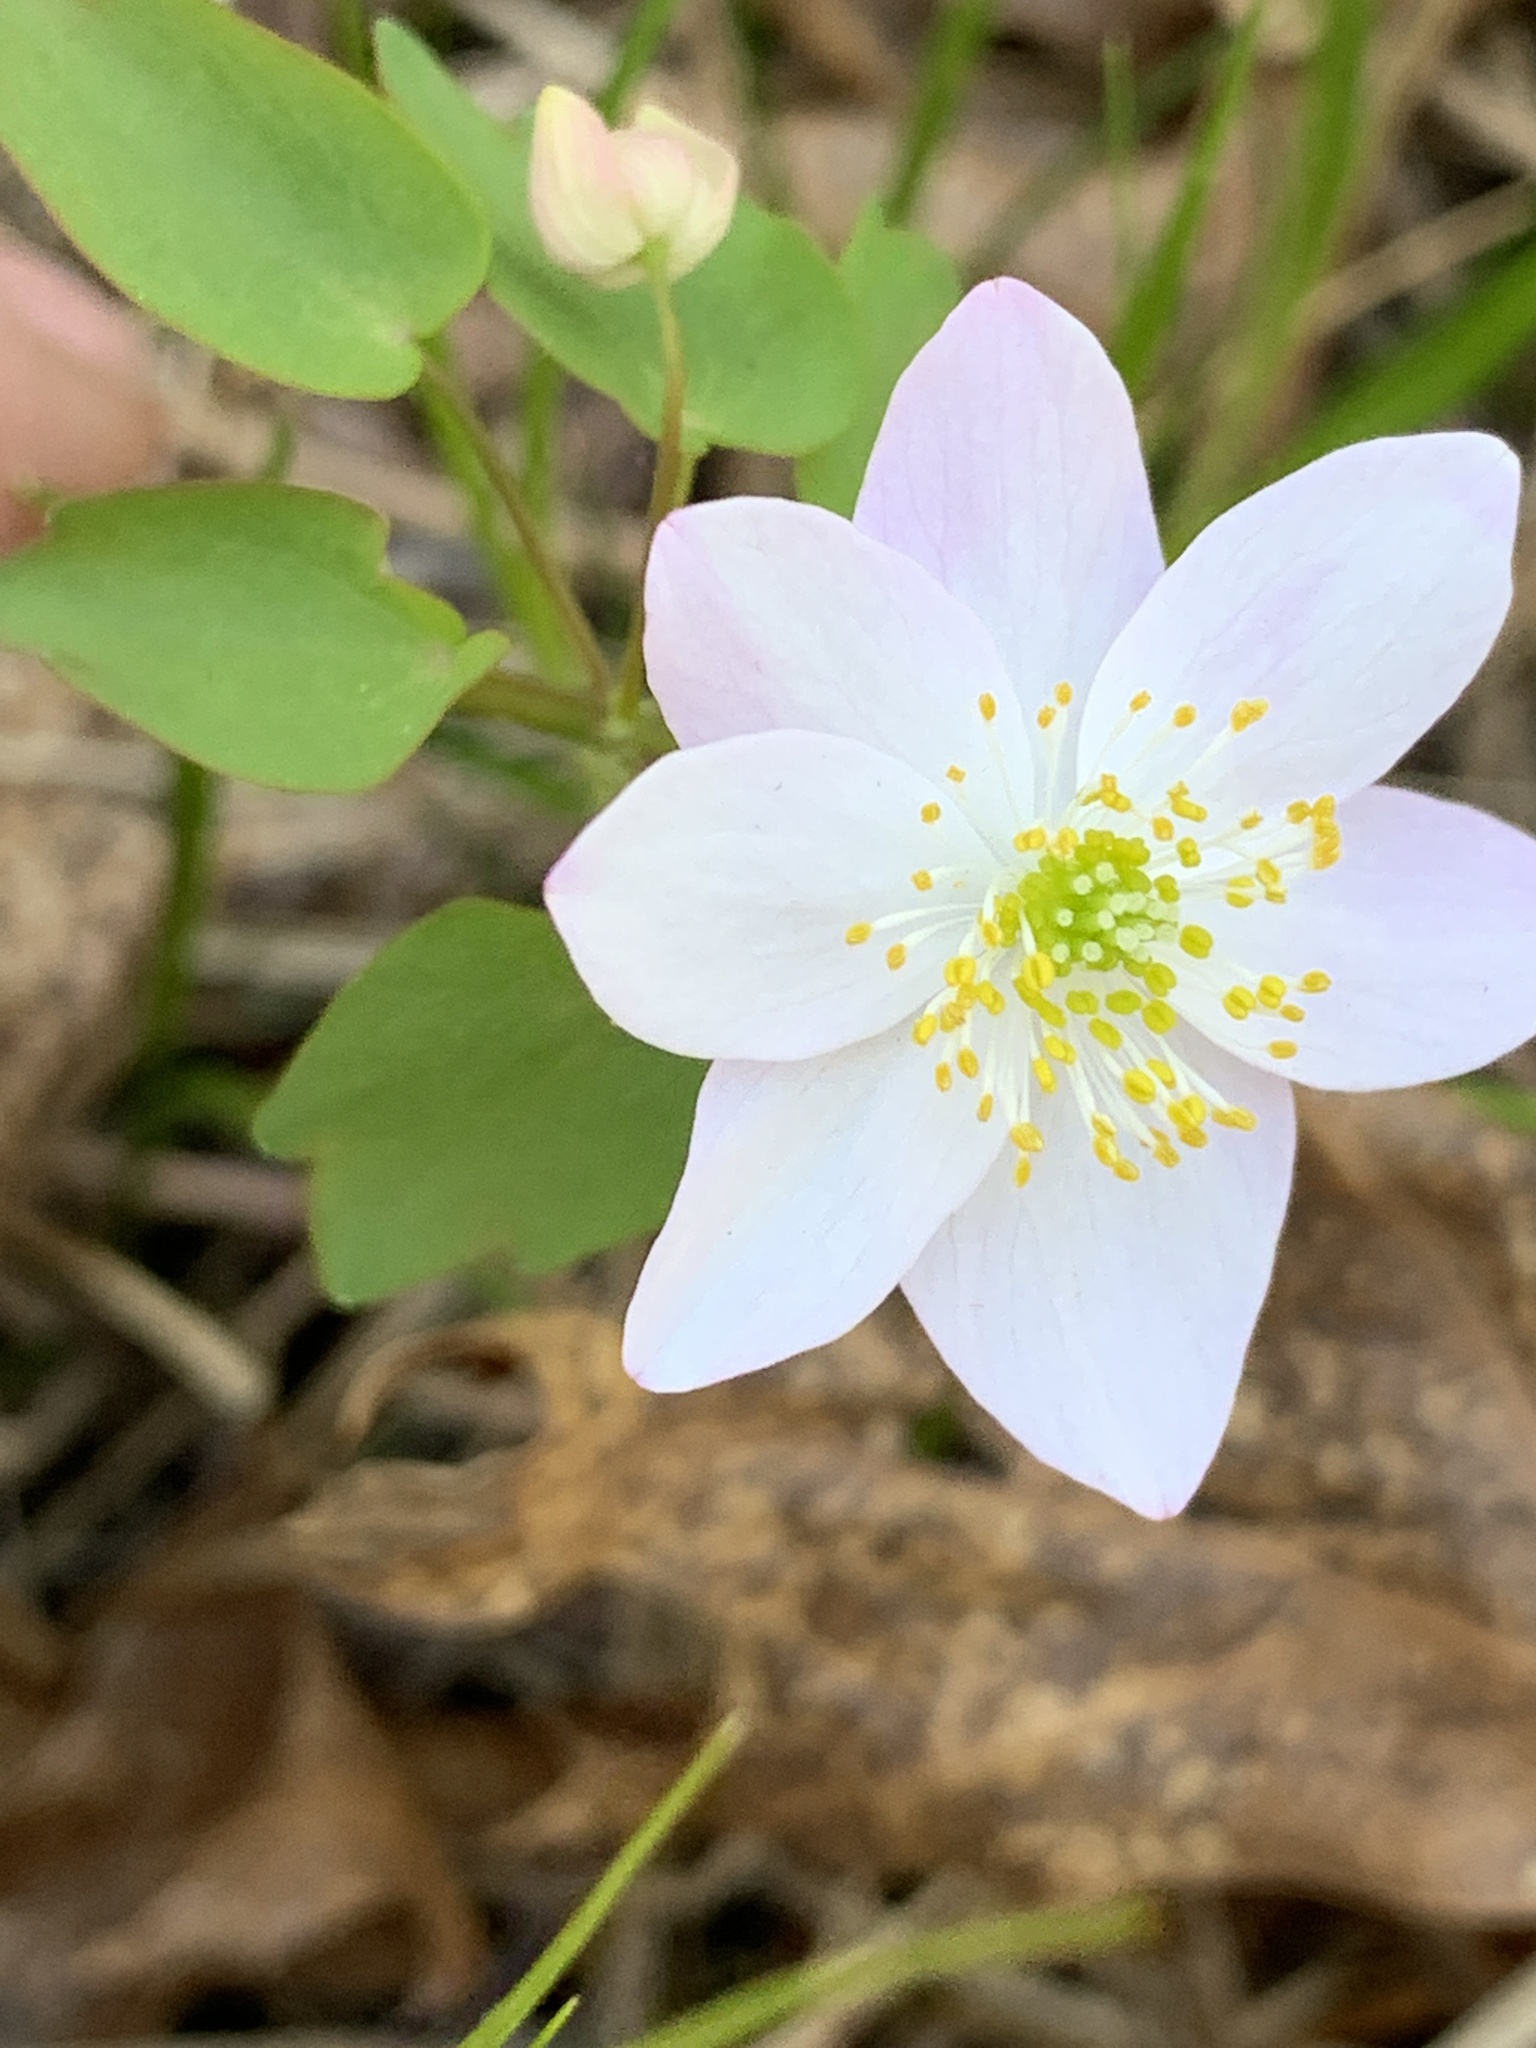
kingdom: Plantae
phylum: Tracheophyta
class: Magnoliopsida
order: Ranunculales
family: Ranunculaceae
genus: Thalictrum
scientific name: Thalictrum thalictroides
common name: Rue-anemone
